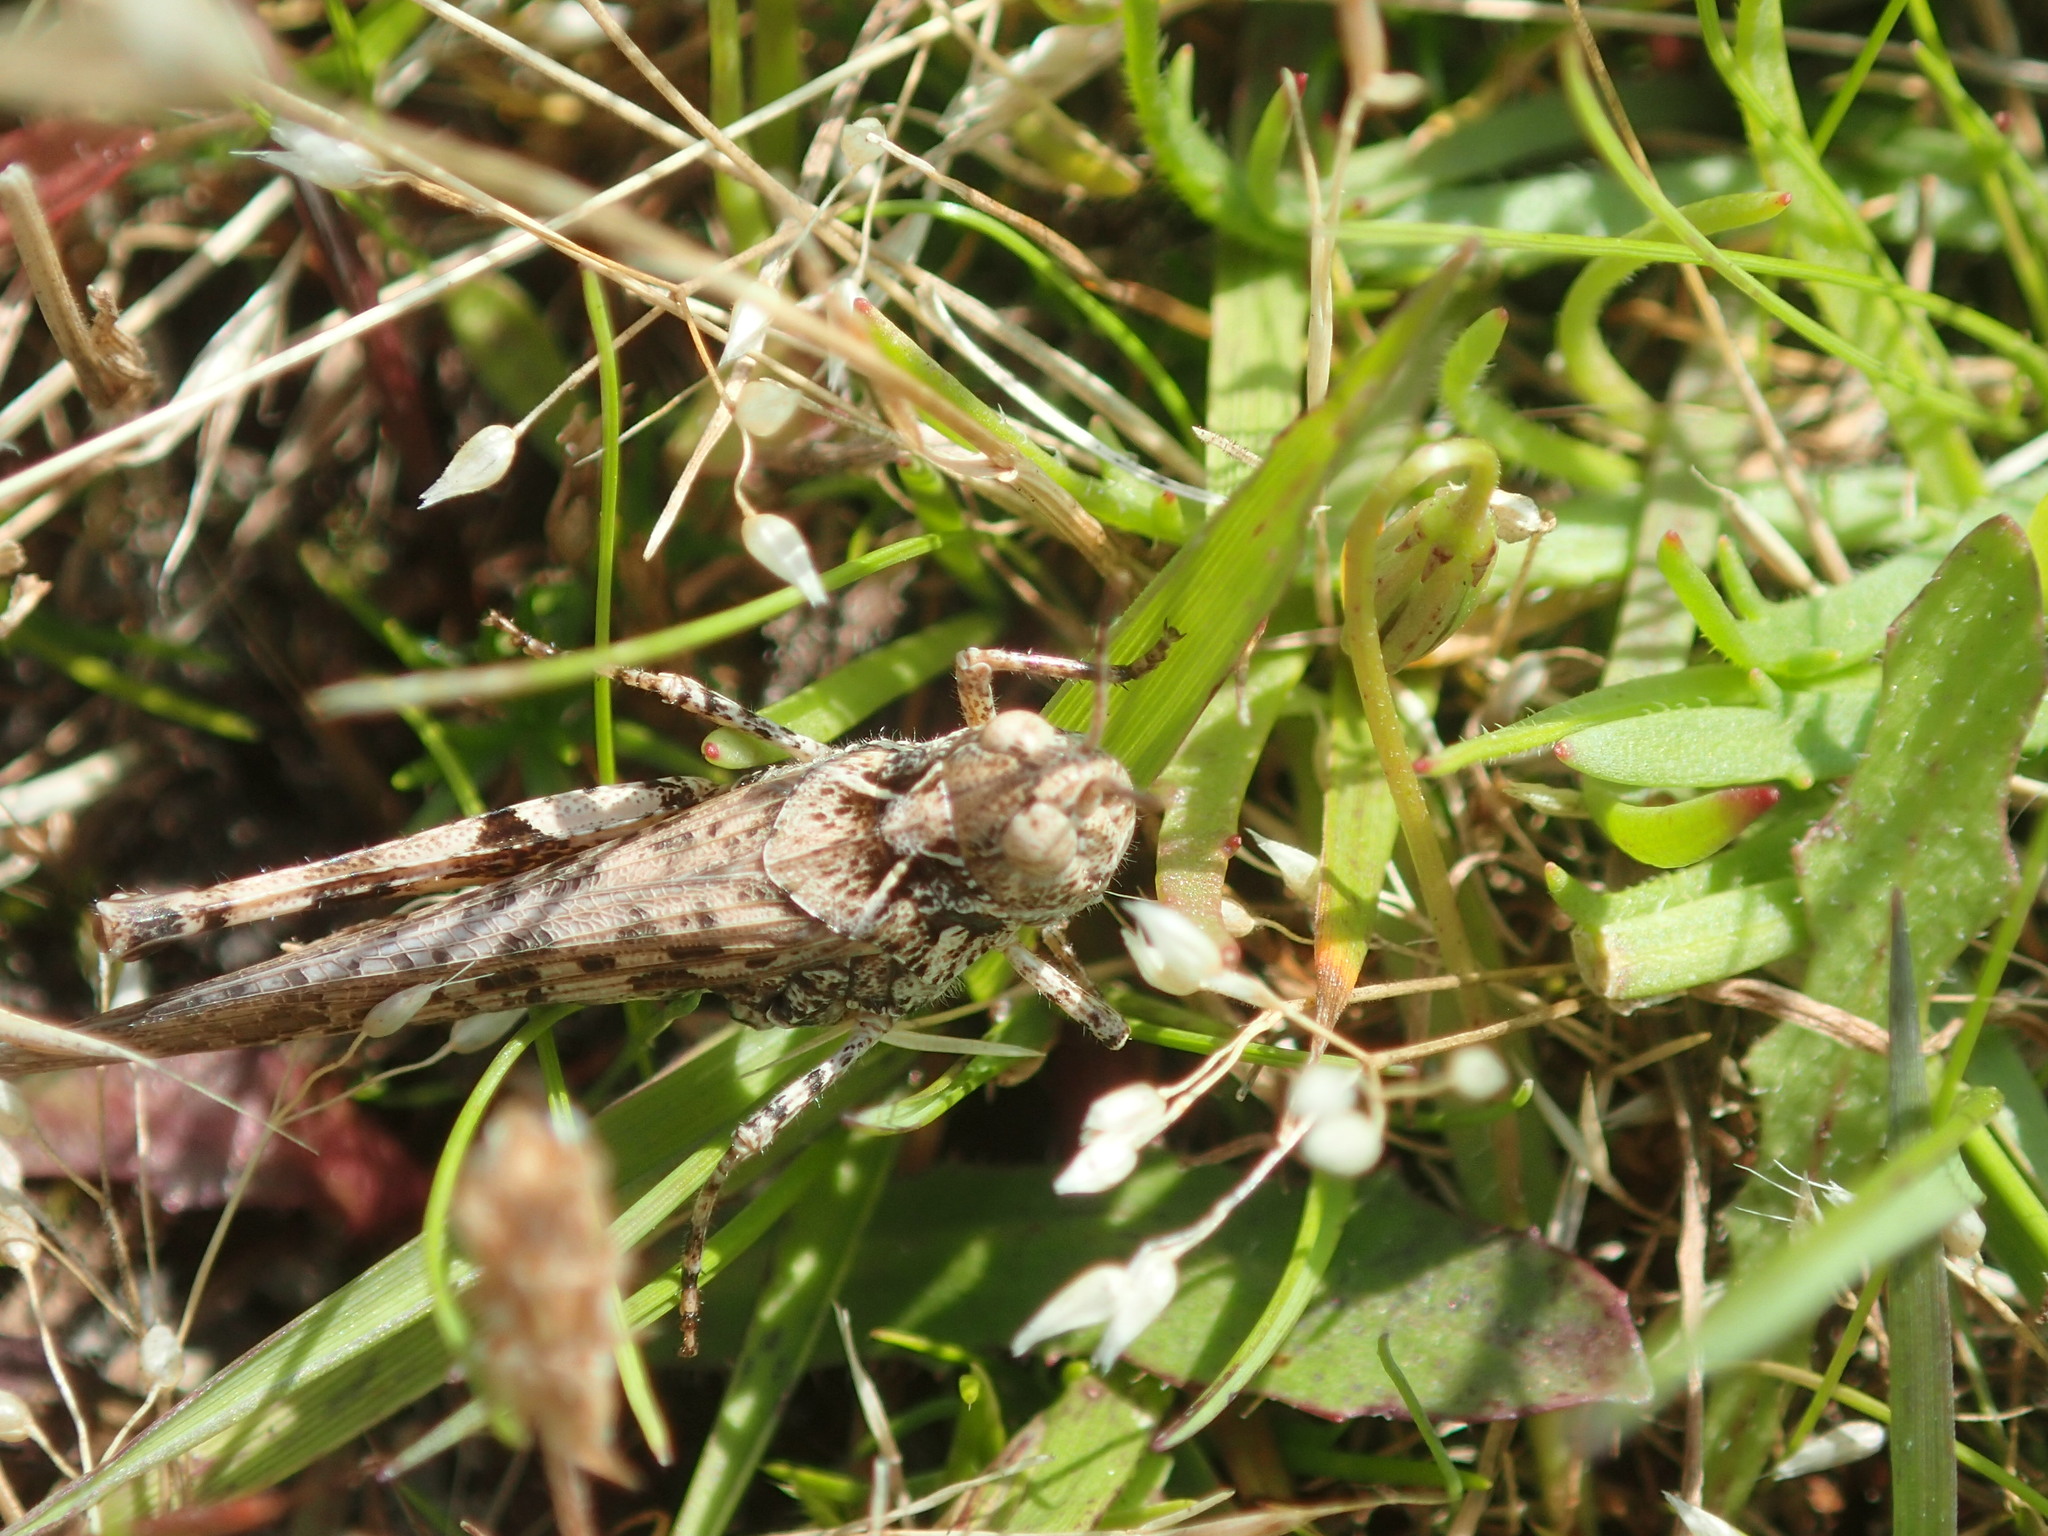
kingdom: Animalia
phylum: Arthropoda
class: Insecta
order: Orthoptera
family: Acrididae
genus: Austroicetes
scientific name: Austroicetes vulgaris
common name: Southeastern austroicetes
